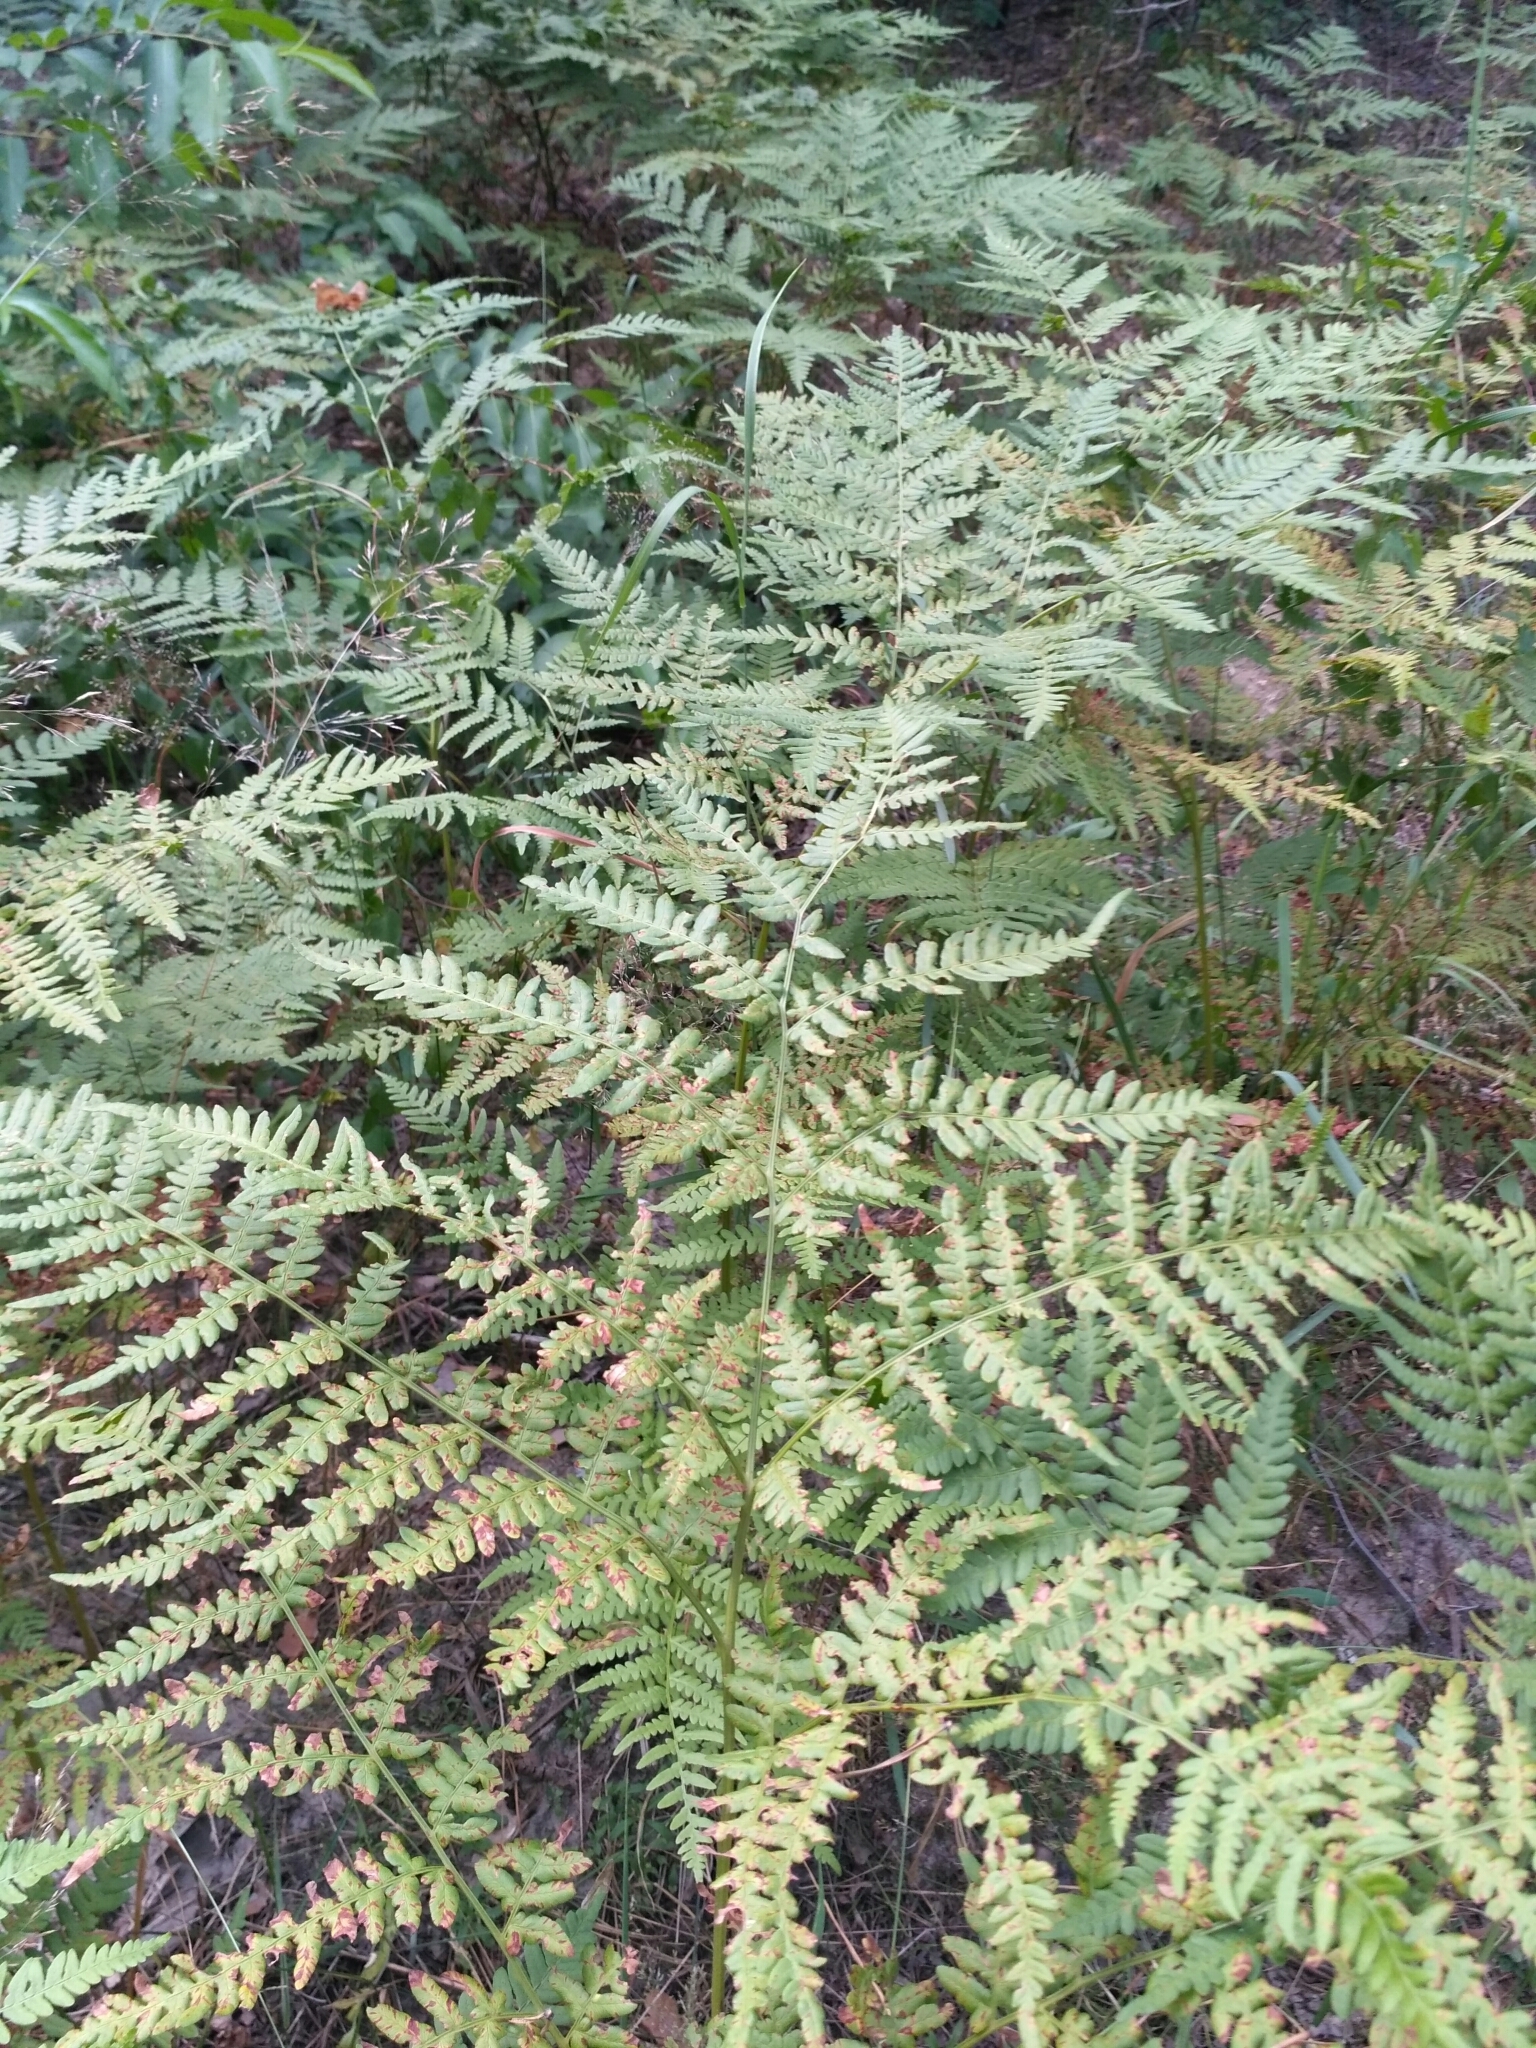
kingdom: Plantae
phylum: Tracheophyta
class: Polypodiopsida
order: Polypodiales
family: Dennstaedtiaceae
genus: Pteridium
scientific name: Pteridium aquilinum
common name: Bracken
